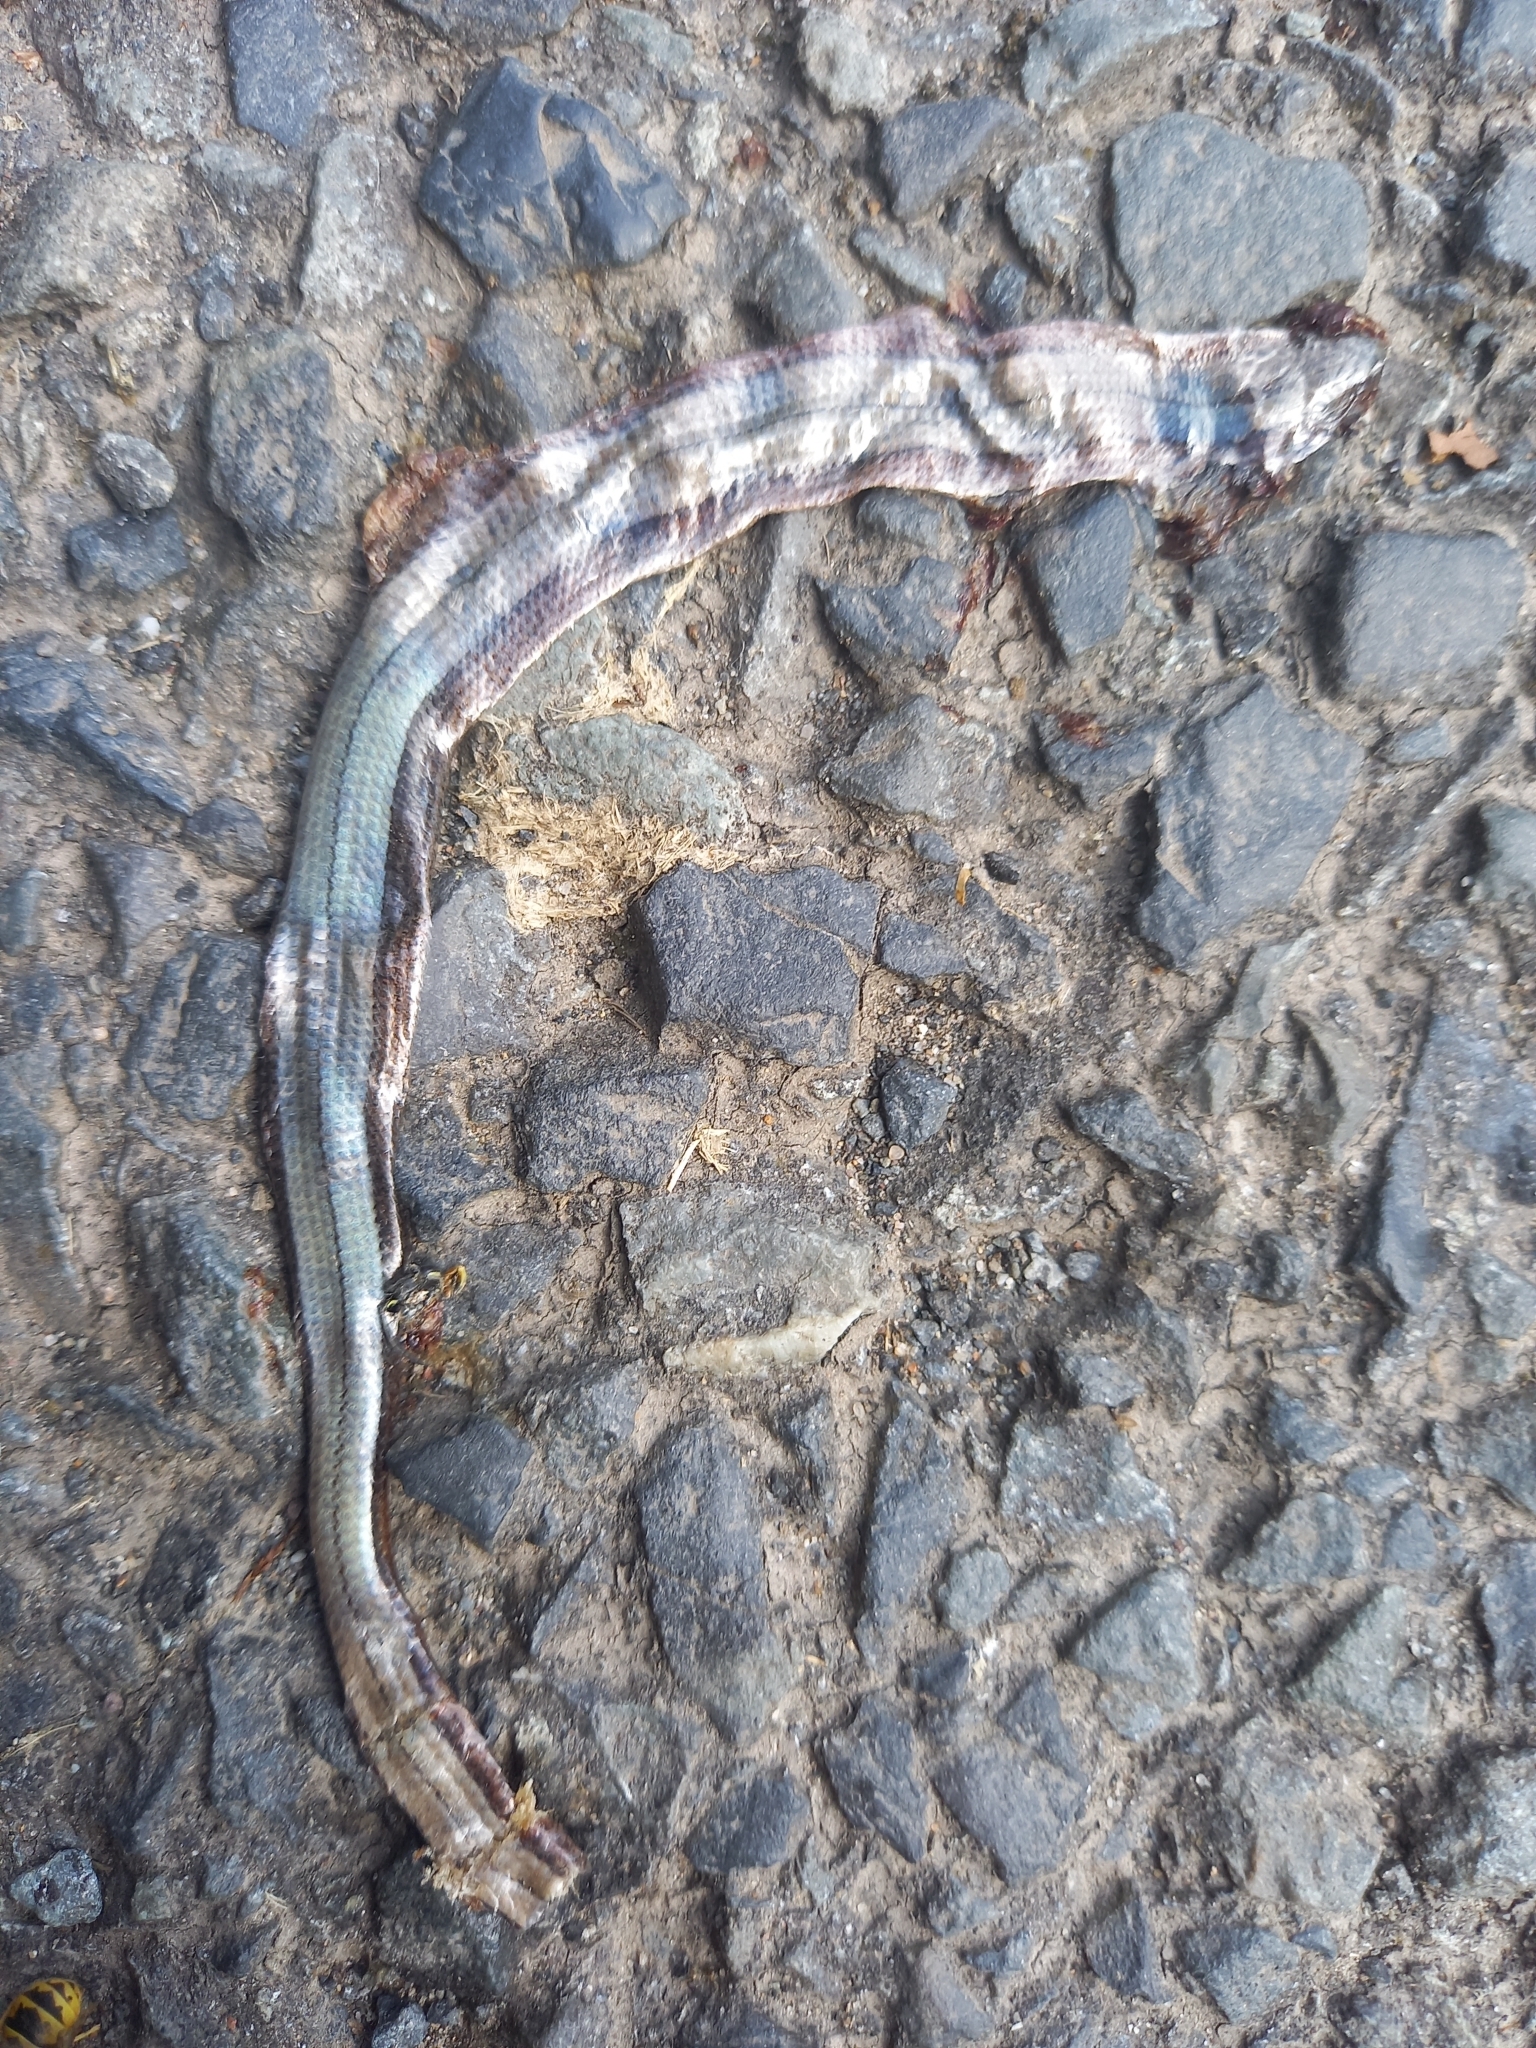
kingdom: Animalia
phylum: Chordata
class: Squamata
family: Anguidae
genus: Anguis
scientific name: Anguis fragilis
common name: Slow worm
